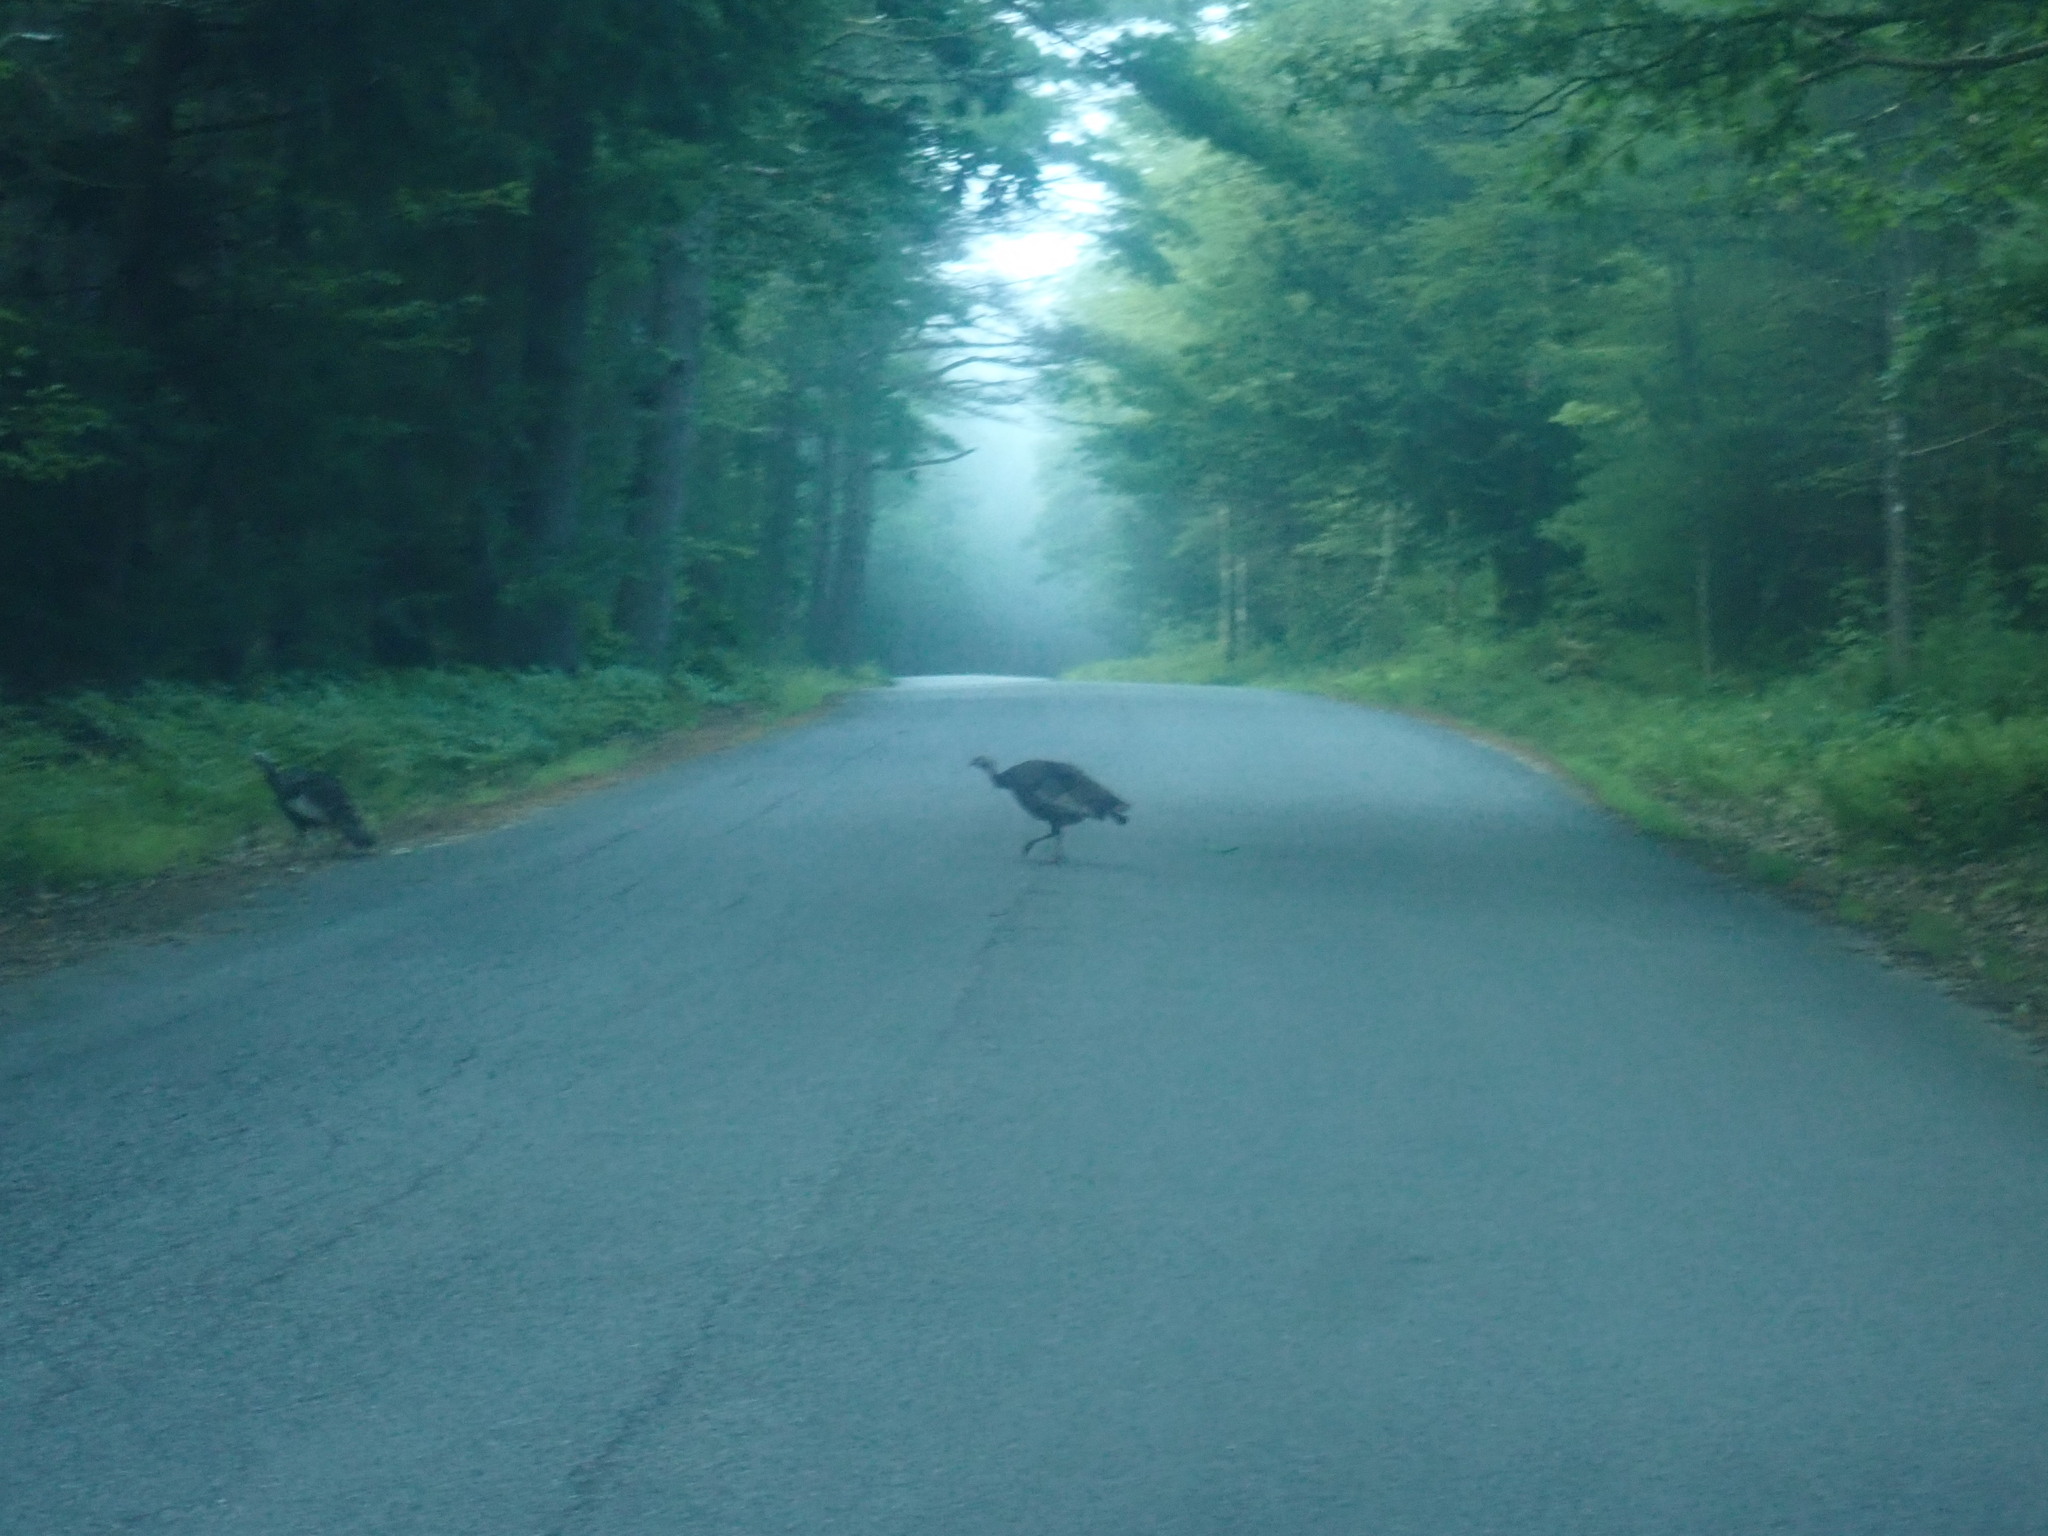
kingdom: Animalia
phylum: Chordata
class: Aves
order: Galliformes
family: Phasianidae
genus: Meleagris
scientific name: Meleagris gallopavo
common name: Wild turkey
